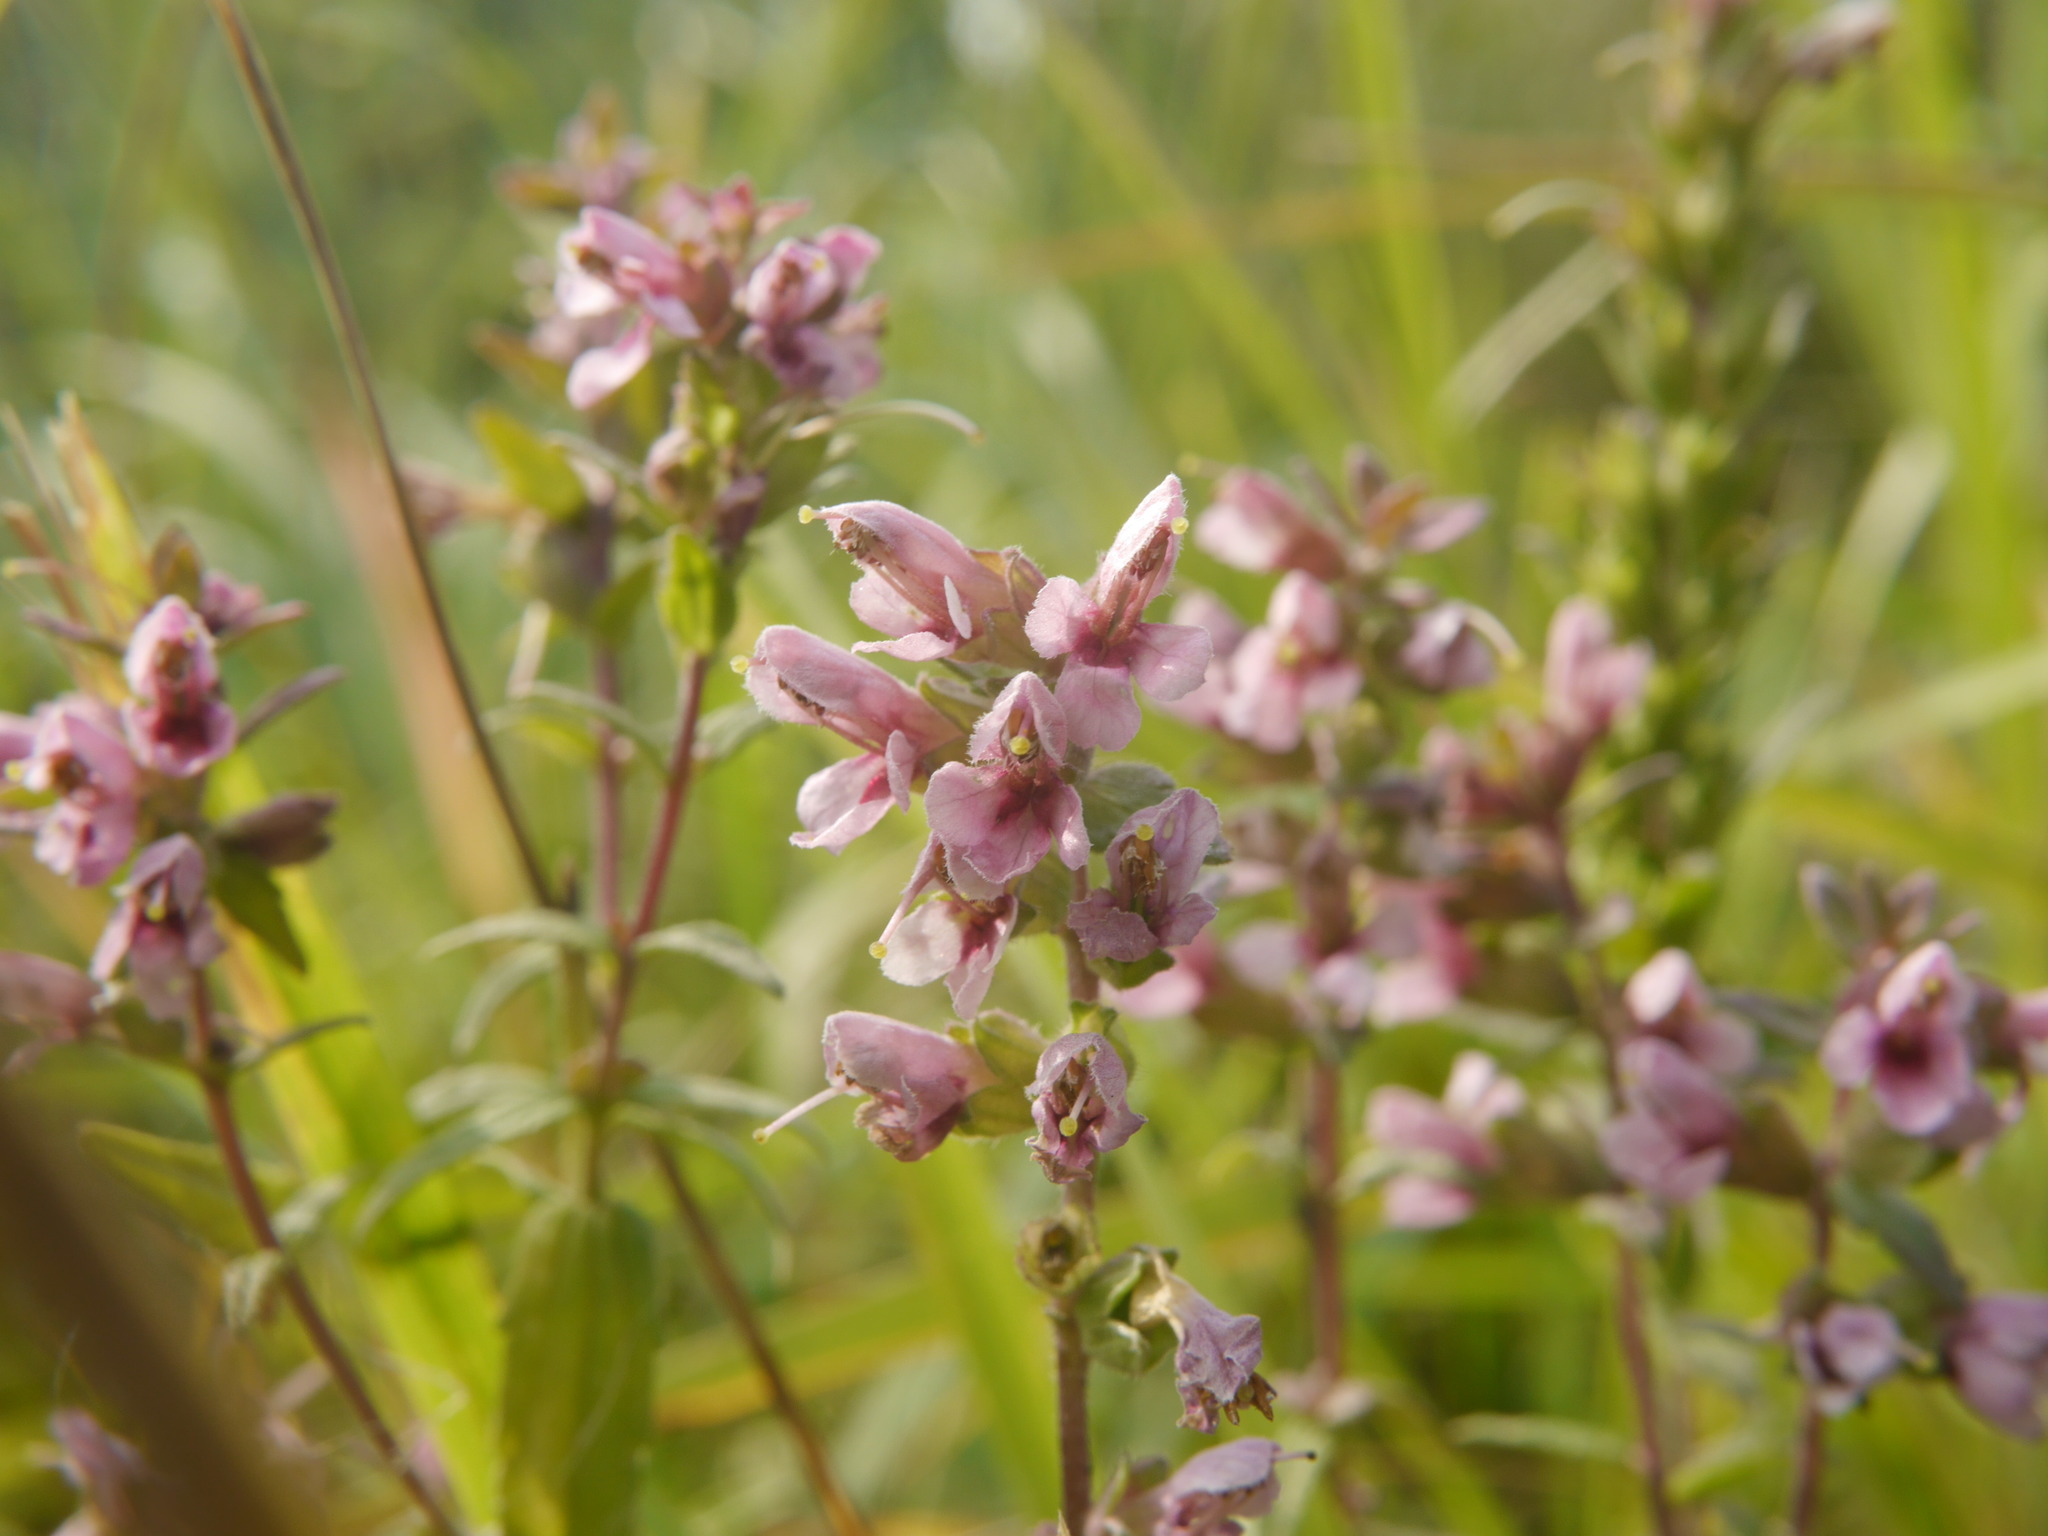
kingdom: Plantae
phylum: Tracheophyta
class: Magnoliopsida
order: Lamiales
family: Orobanchaceae
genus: Odontites
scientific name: Odontites vulgaris
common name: Broomrape
